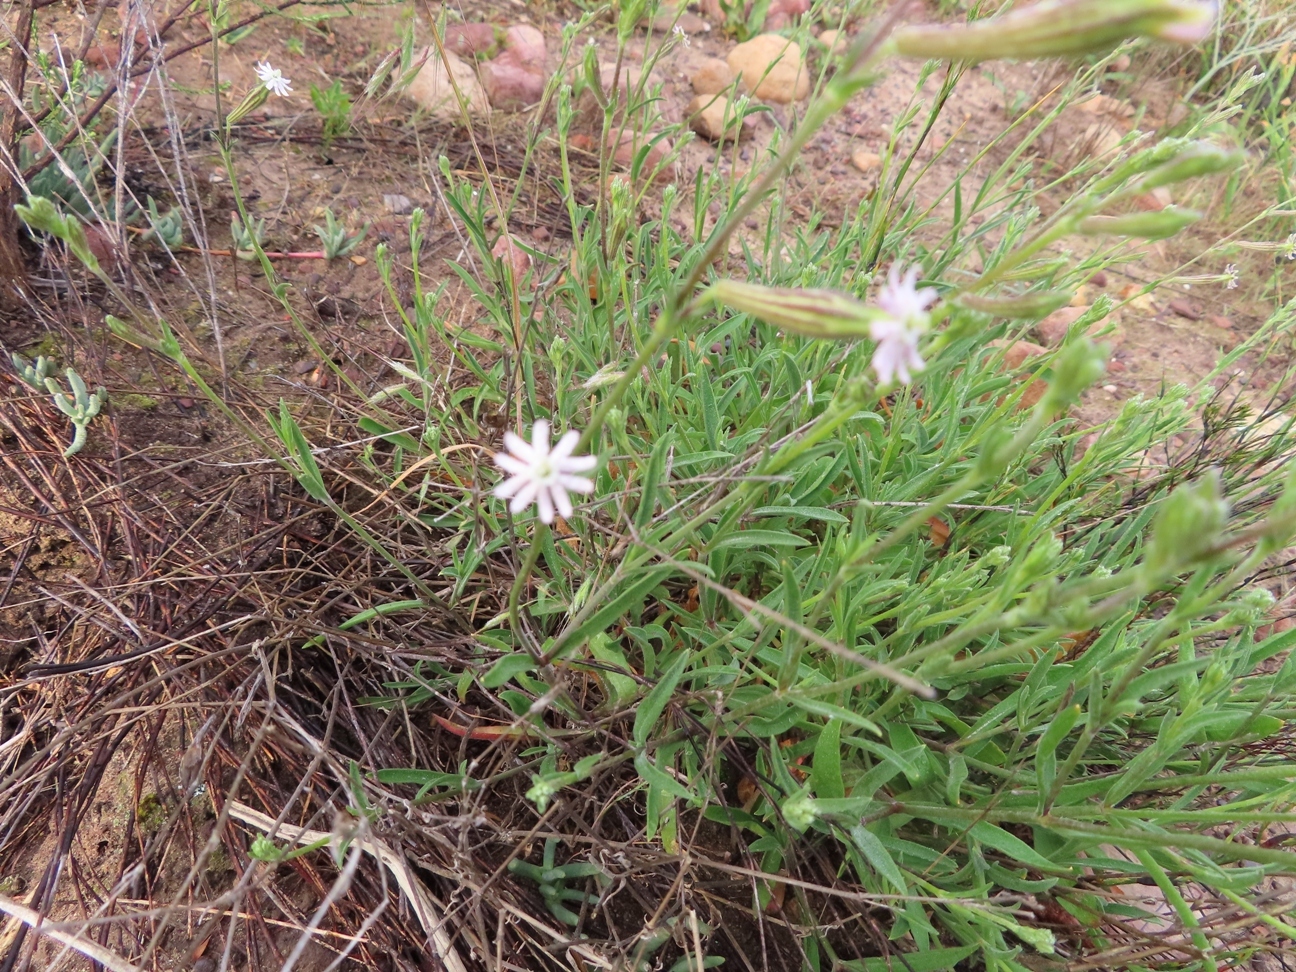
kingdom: Plantae
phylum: Tracheophyta
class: Magnoliopsida
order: Caryophyllales
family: Caryophyllaceae
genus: Silene
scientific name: Silene burchellii
